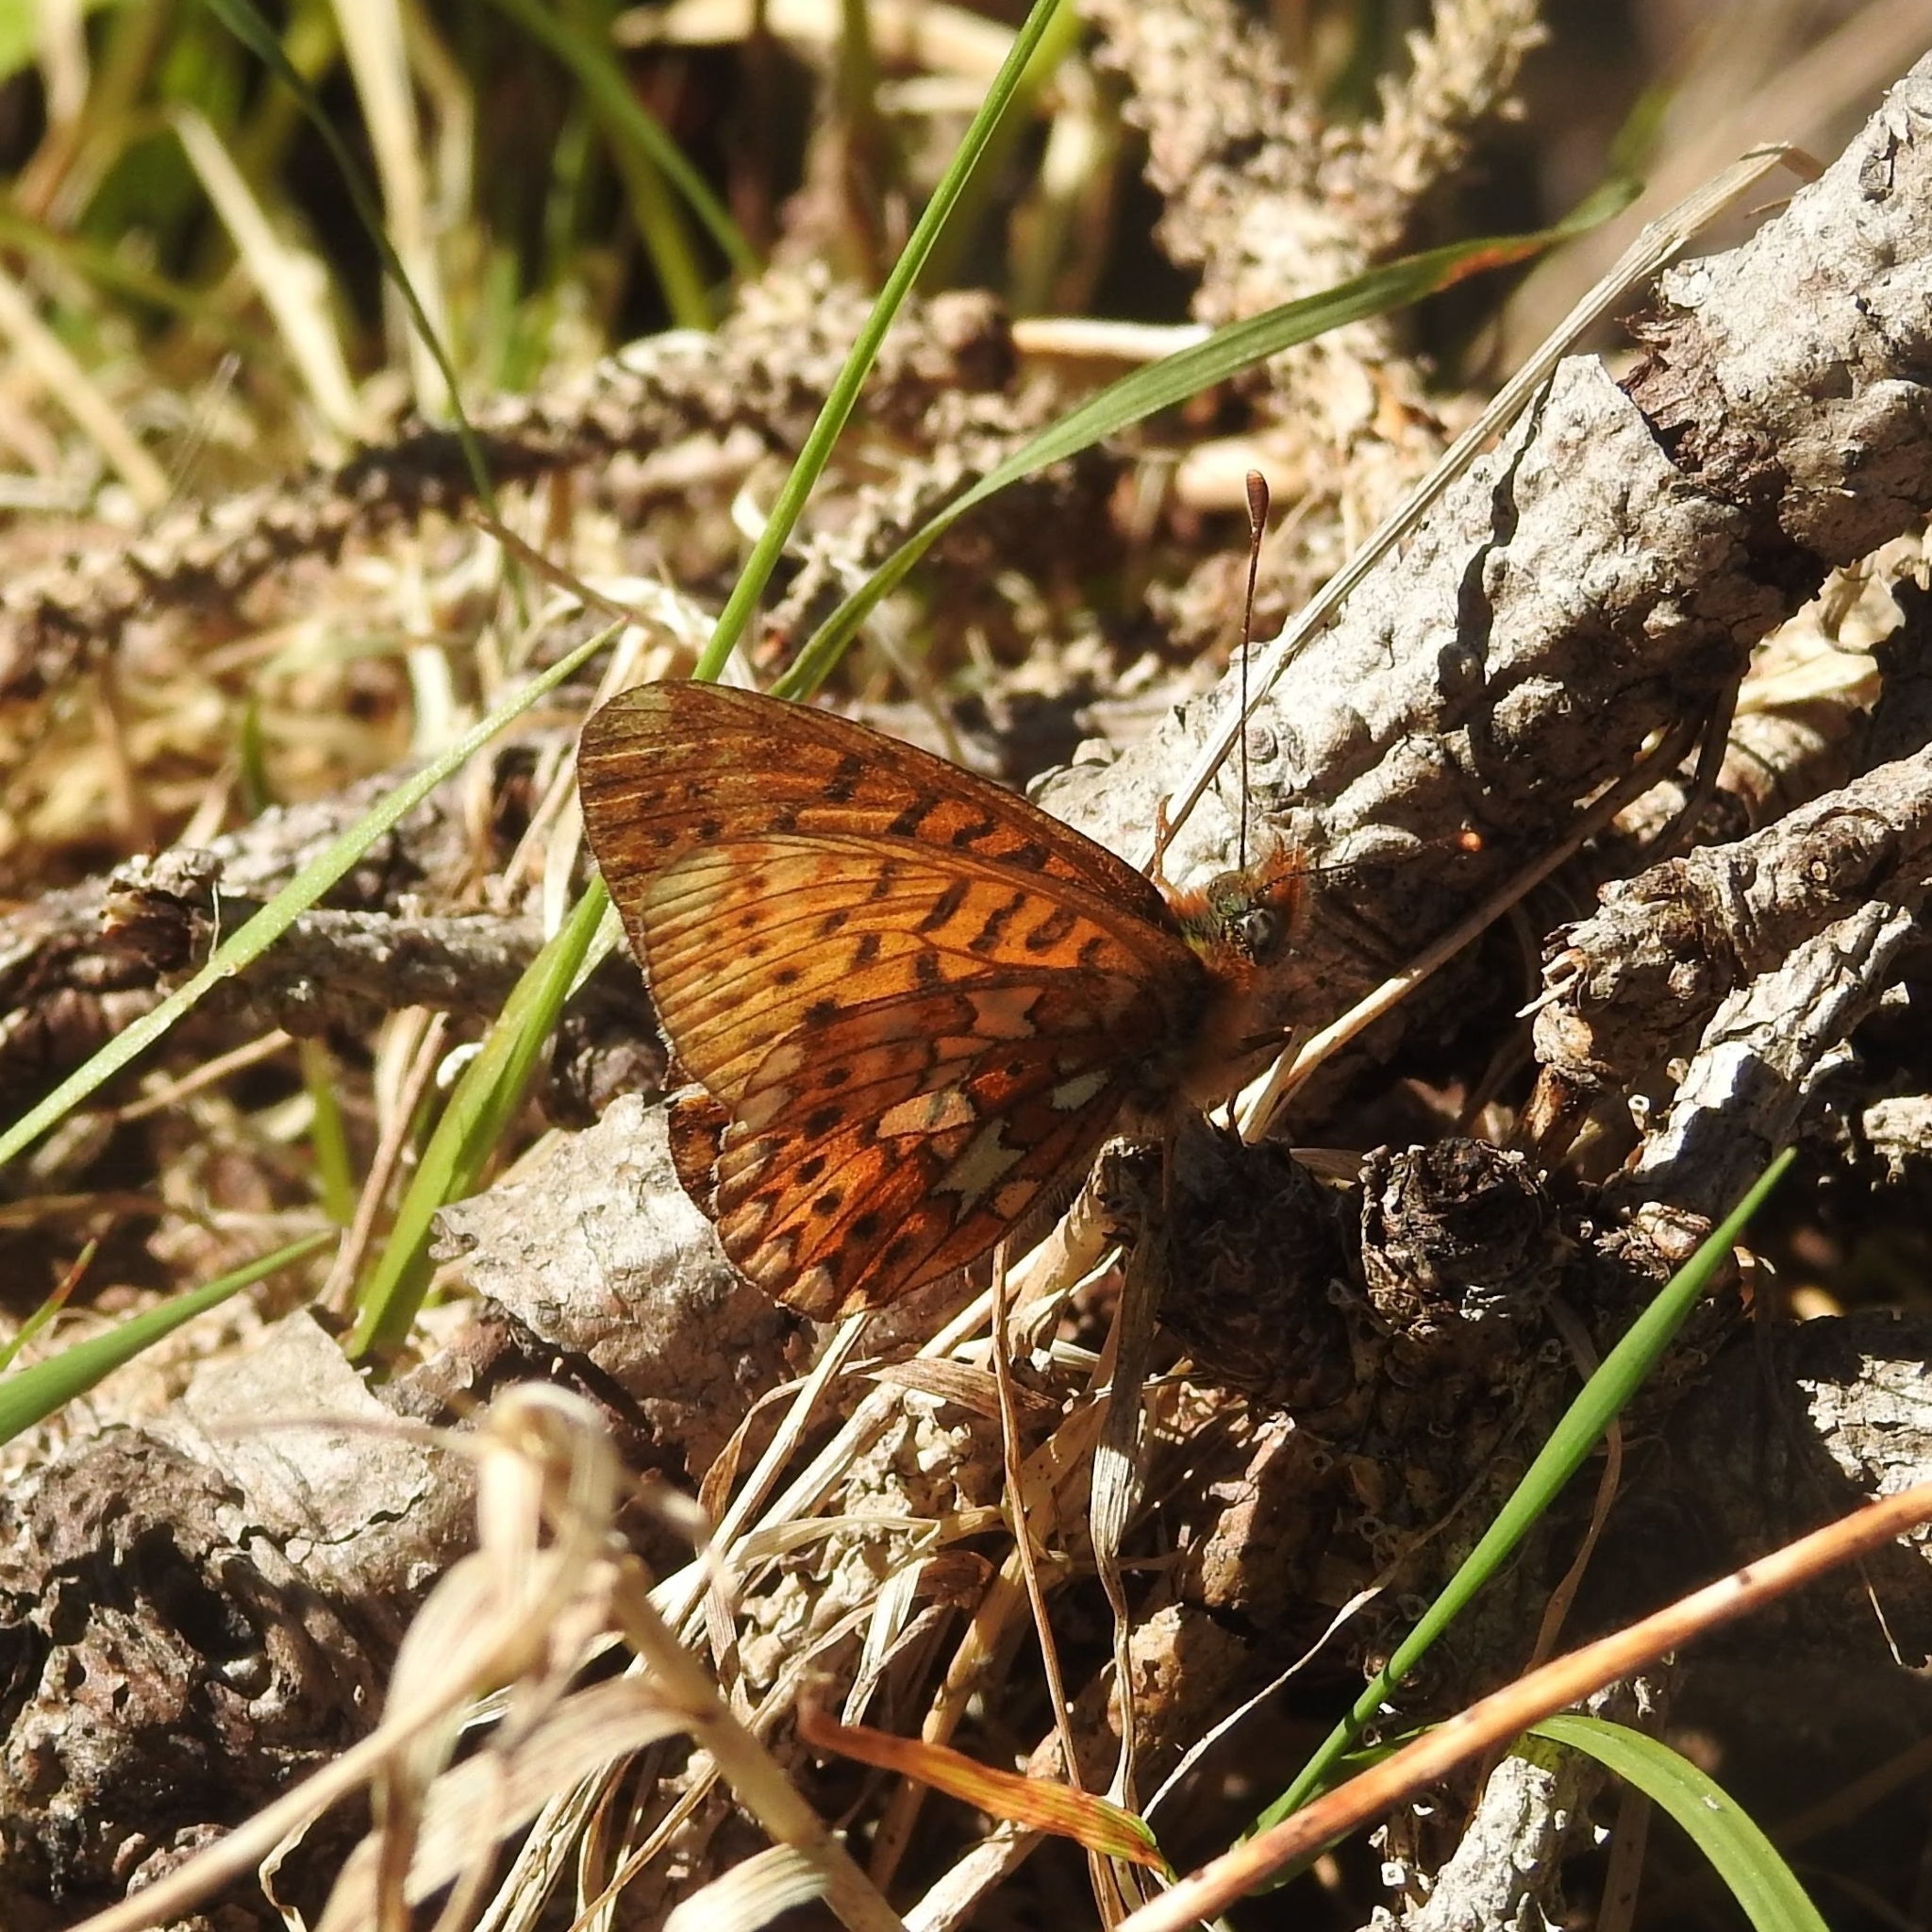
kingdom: Animalia
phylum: Arthropoda
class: Insecta
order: Lepidoptera
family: Nymphalidae
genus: Clossiana
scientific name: Clossiana euphrosyne
